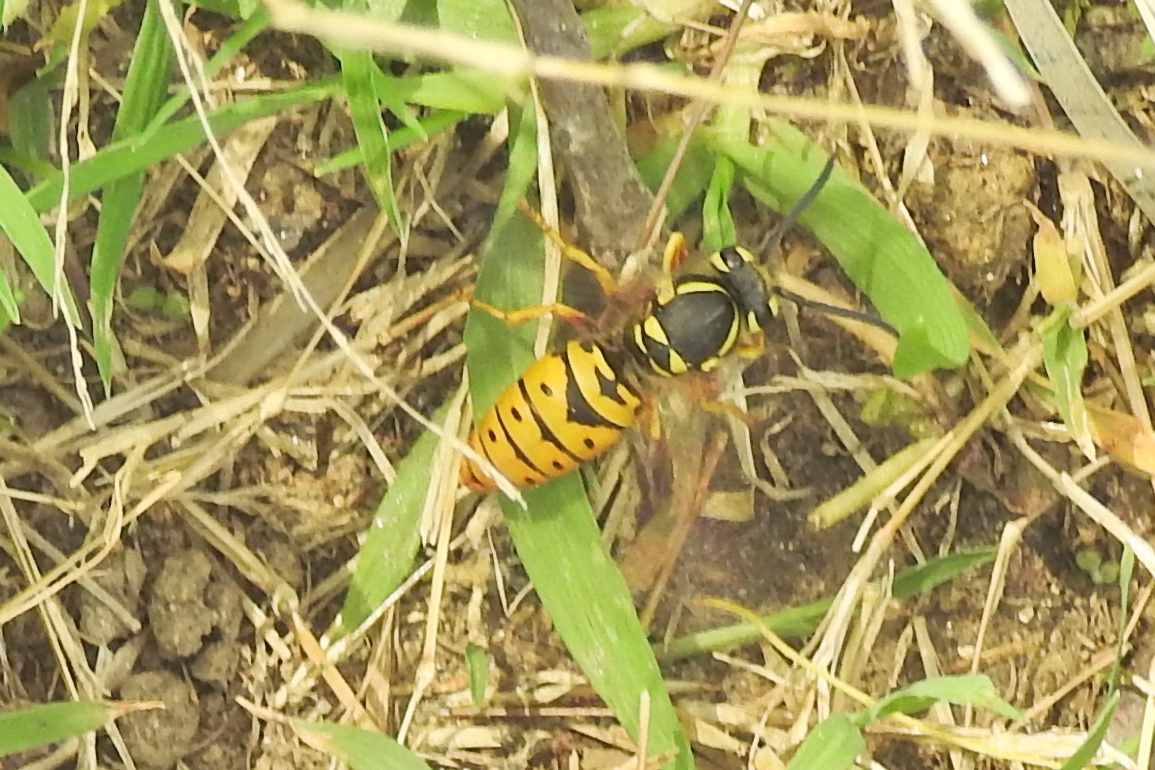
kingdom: Animalia
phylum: Arthropoda
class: Insecta
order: Hymenoptera
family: Vespidae
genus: Vespula
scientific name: Vespula maculifrons
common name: Eastern yellowjacket
